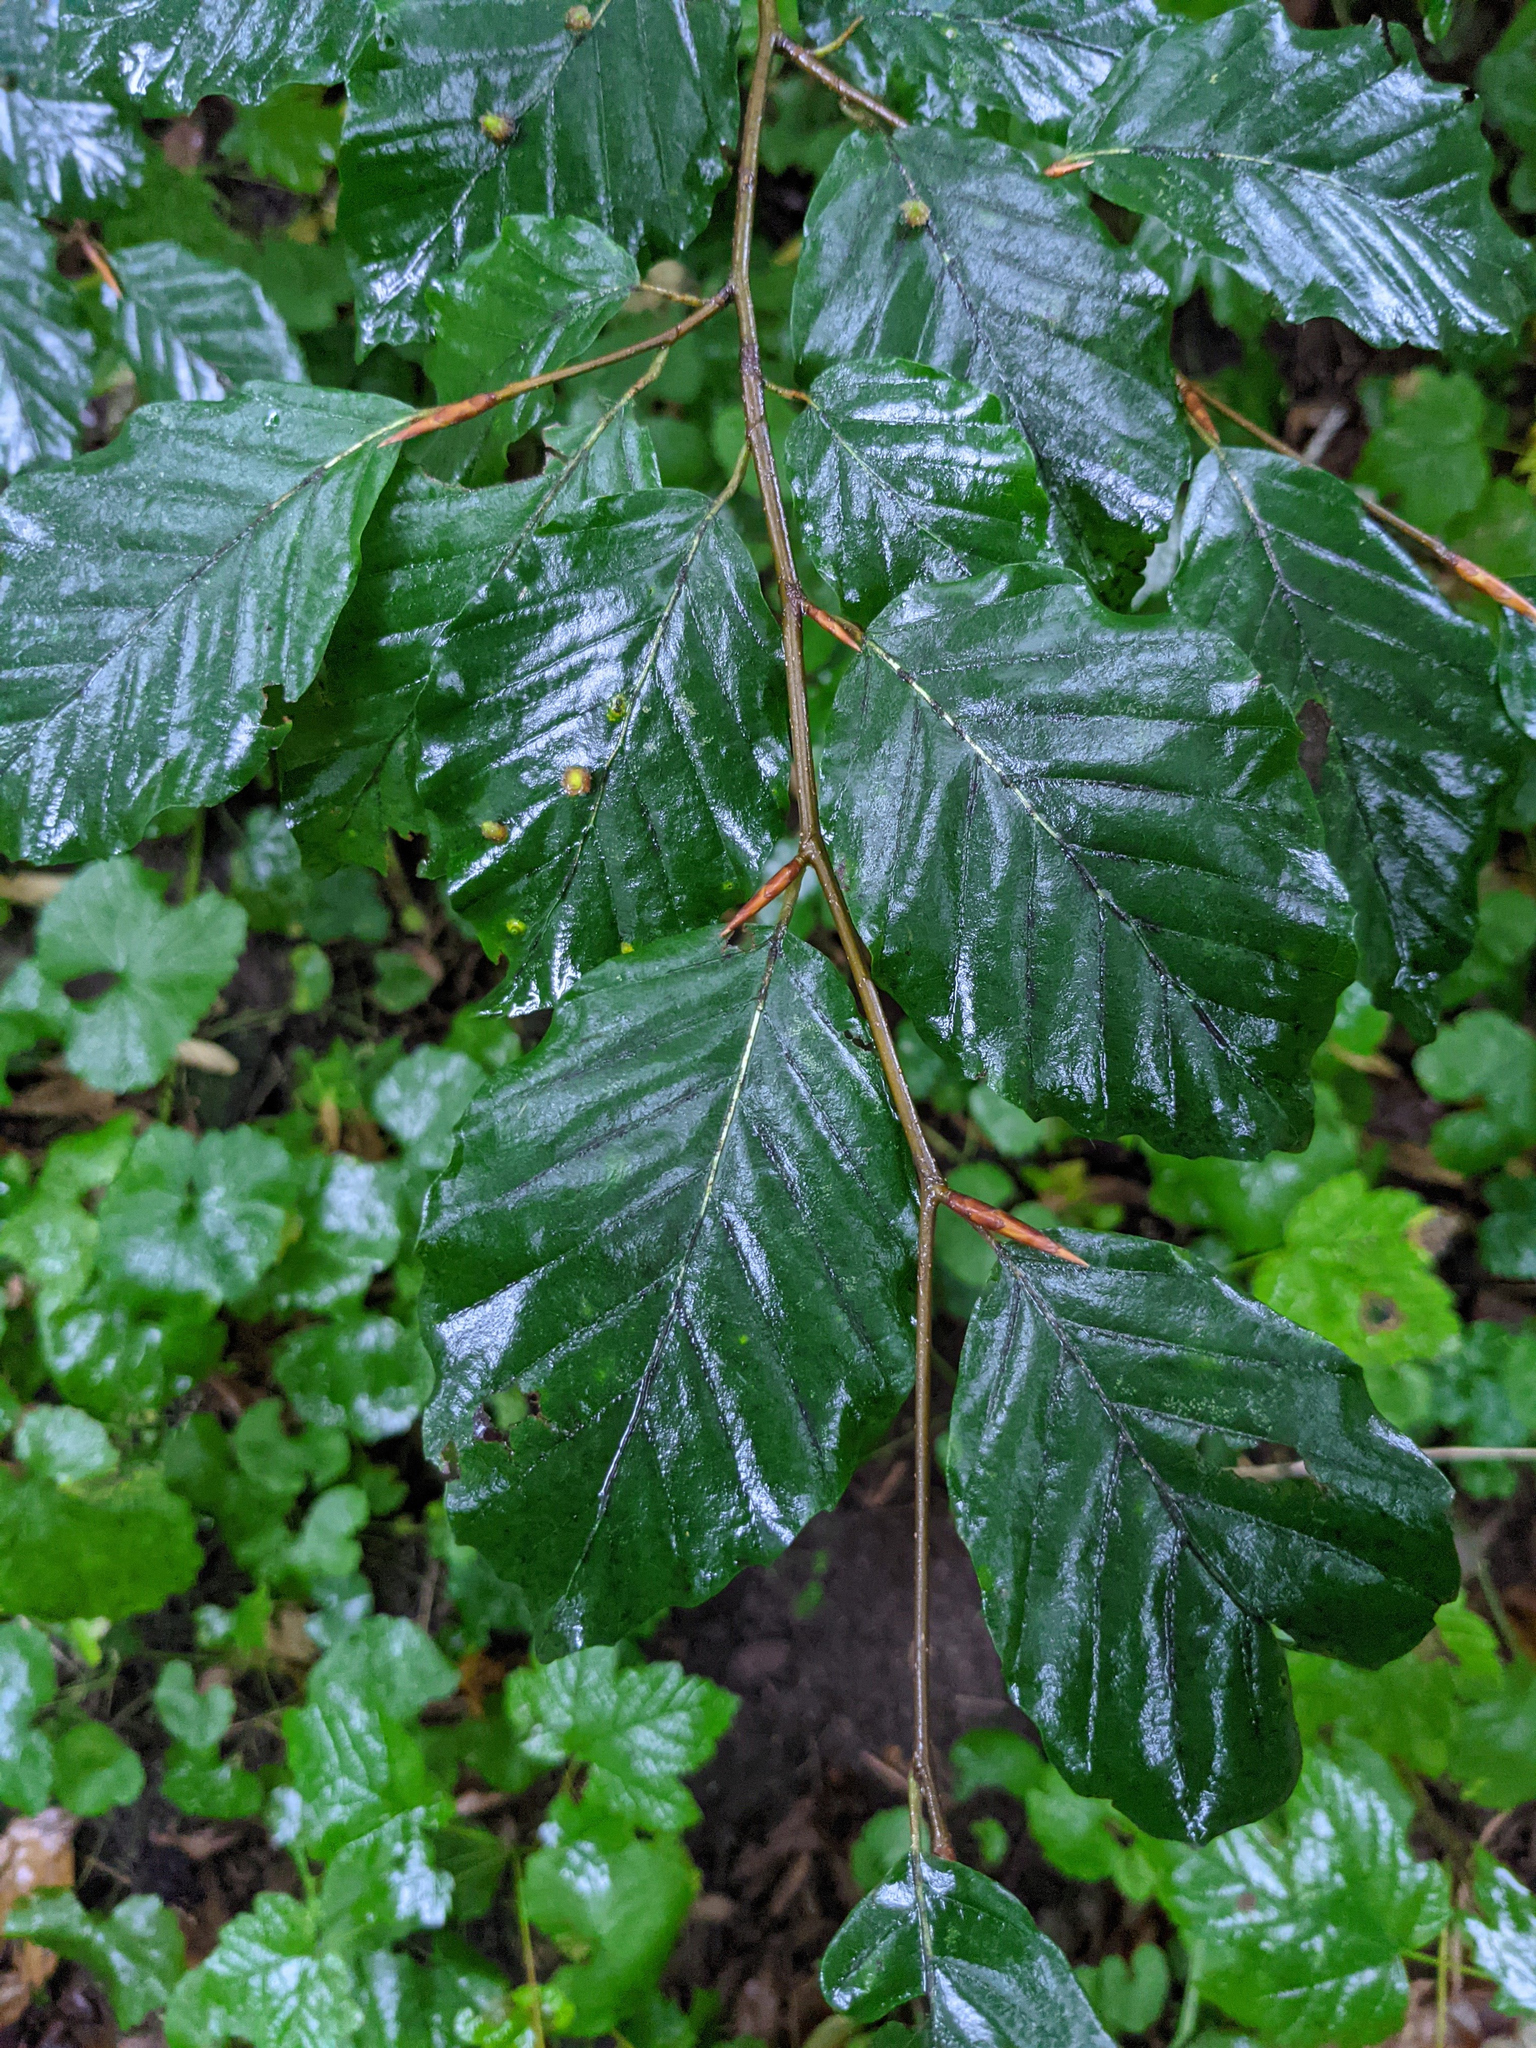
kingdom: Plantae
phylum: Tracheophyta
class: Magnoliopsida
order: Fagales
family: Fagaceae
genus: Fagus
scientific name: Fagus sylvatica
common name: Beech
